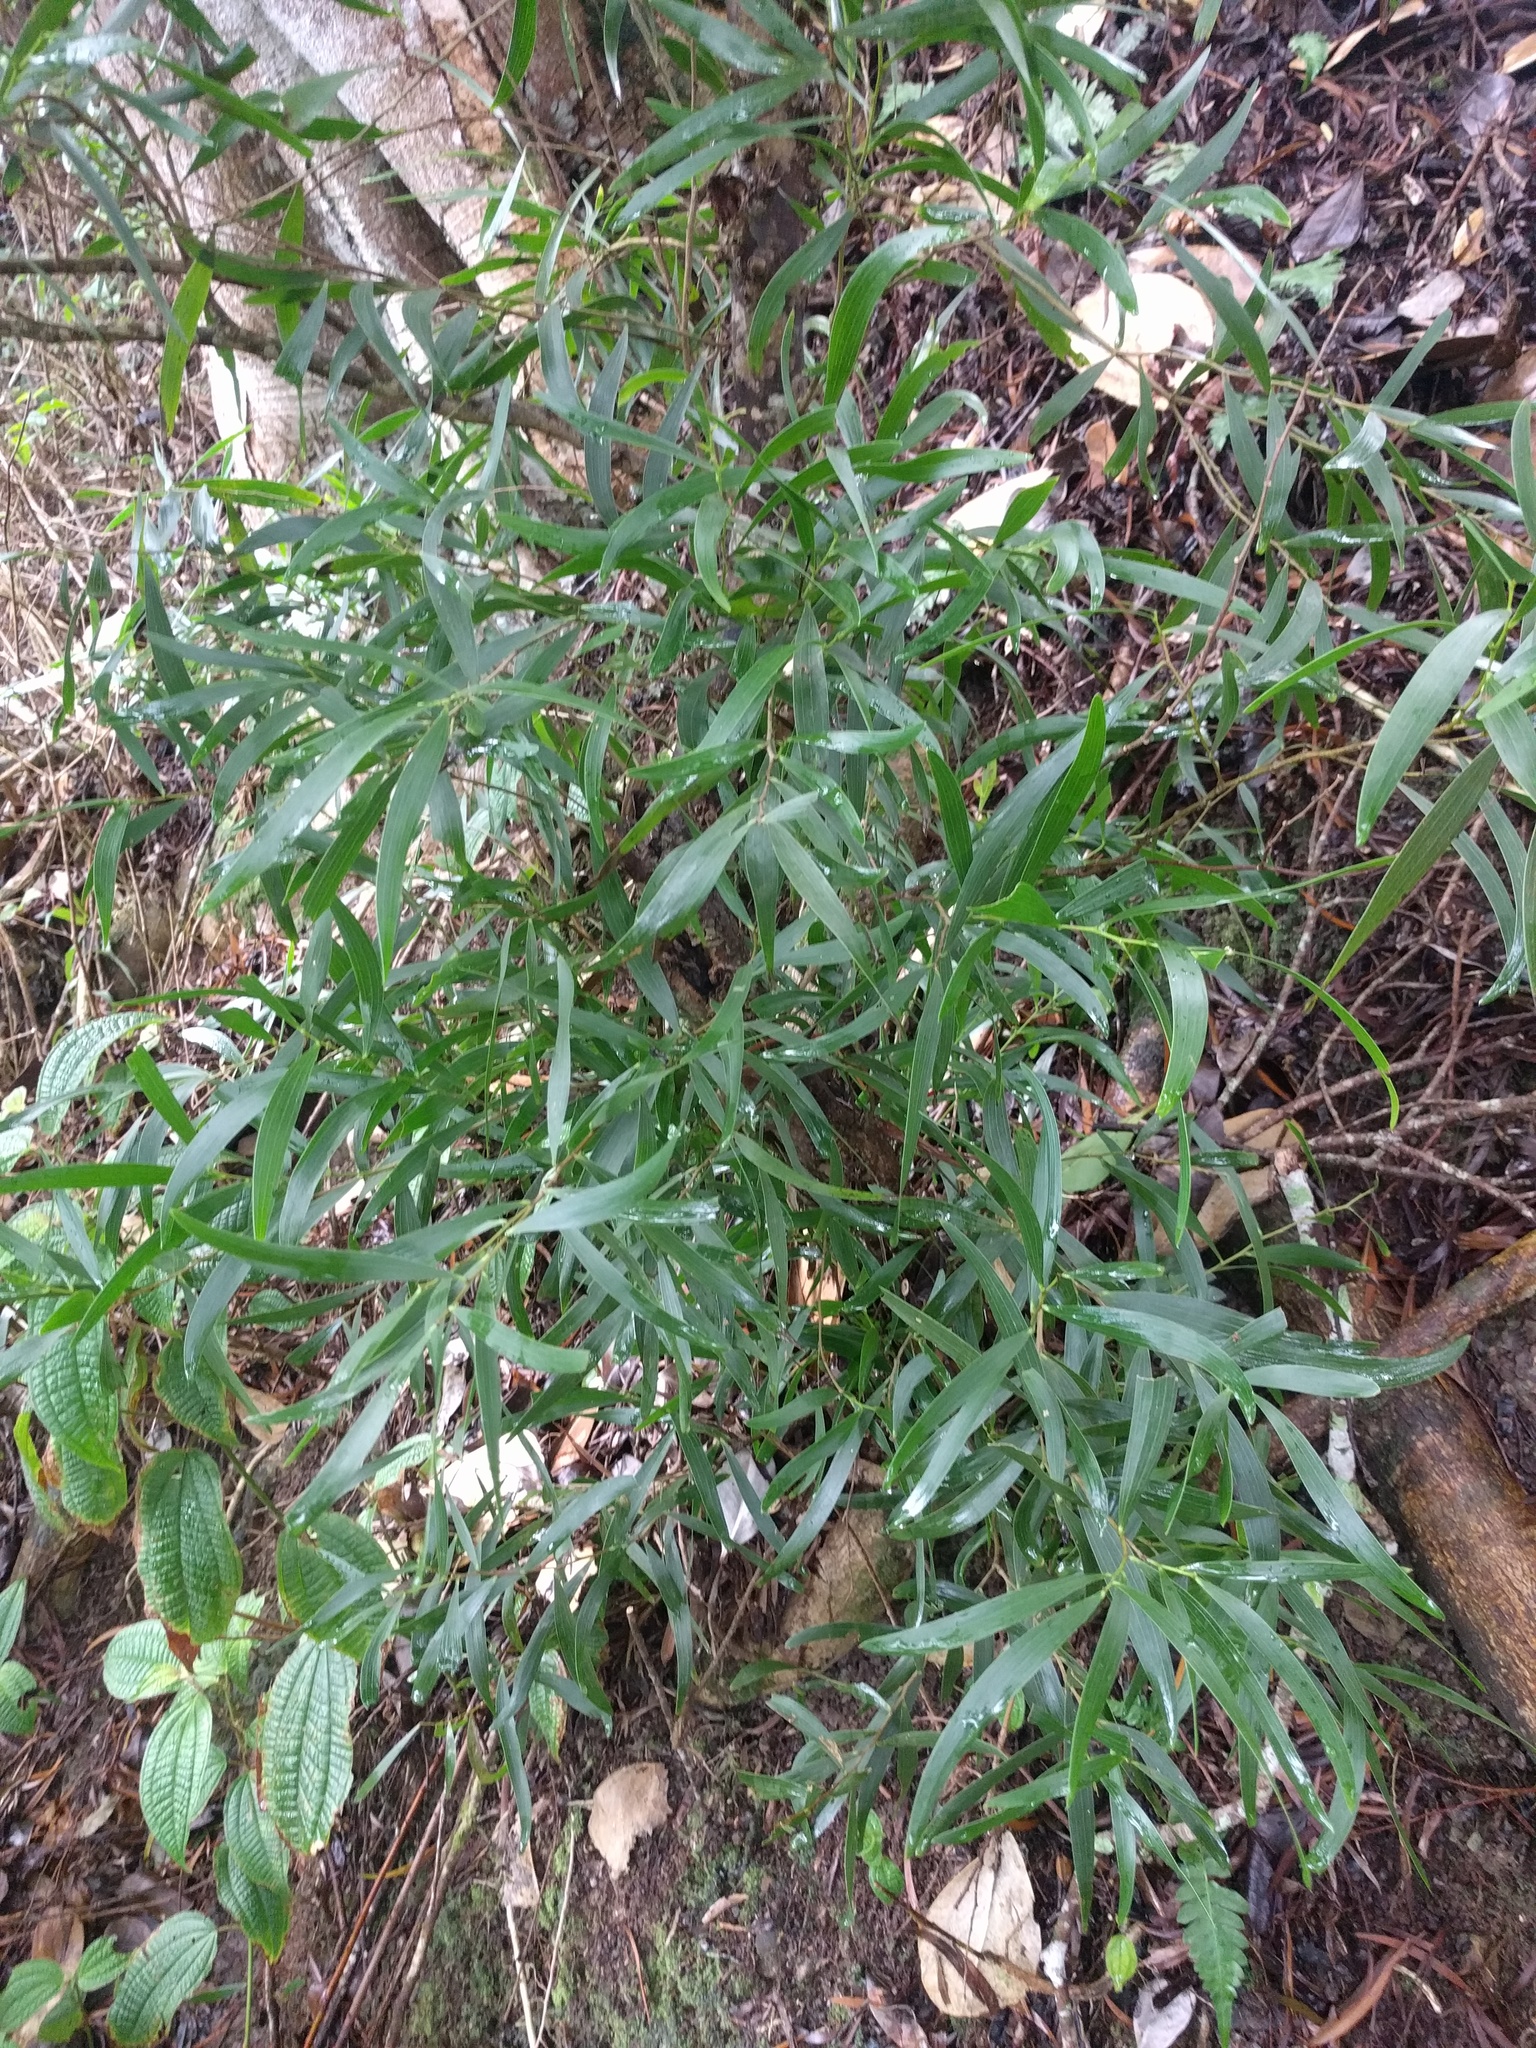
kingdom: Plantae
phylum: Tracheophyta
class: Magnoliopsida
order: Fabales
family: Fabaceae
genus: Acacia
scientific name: Acacia confusa
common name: Formosan koa
